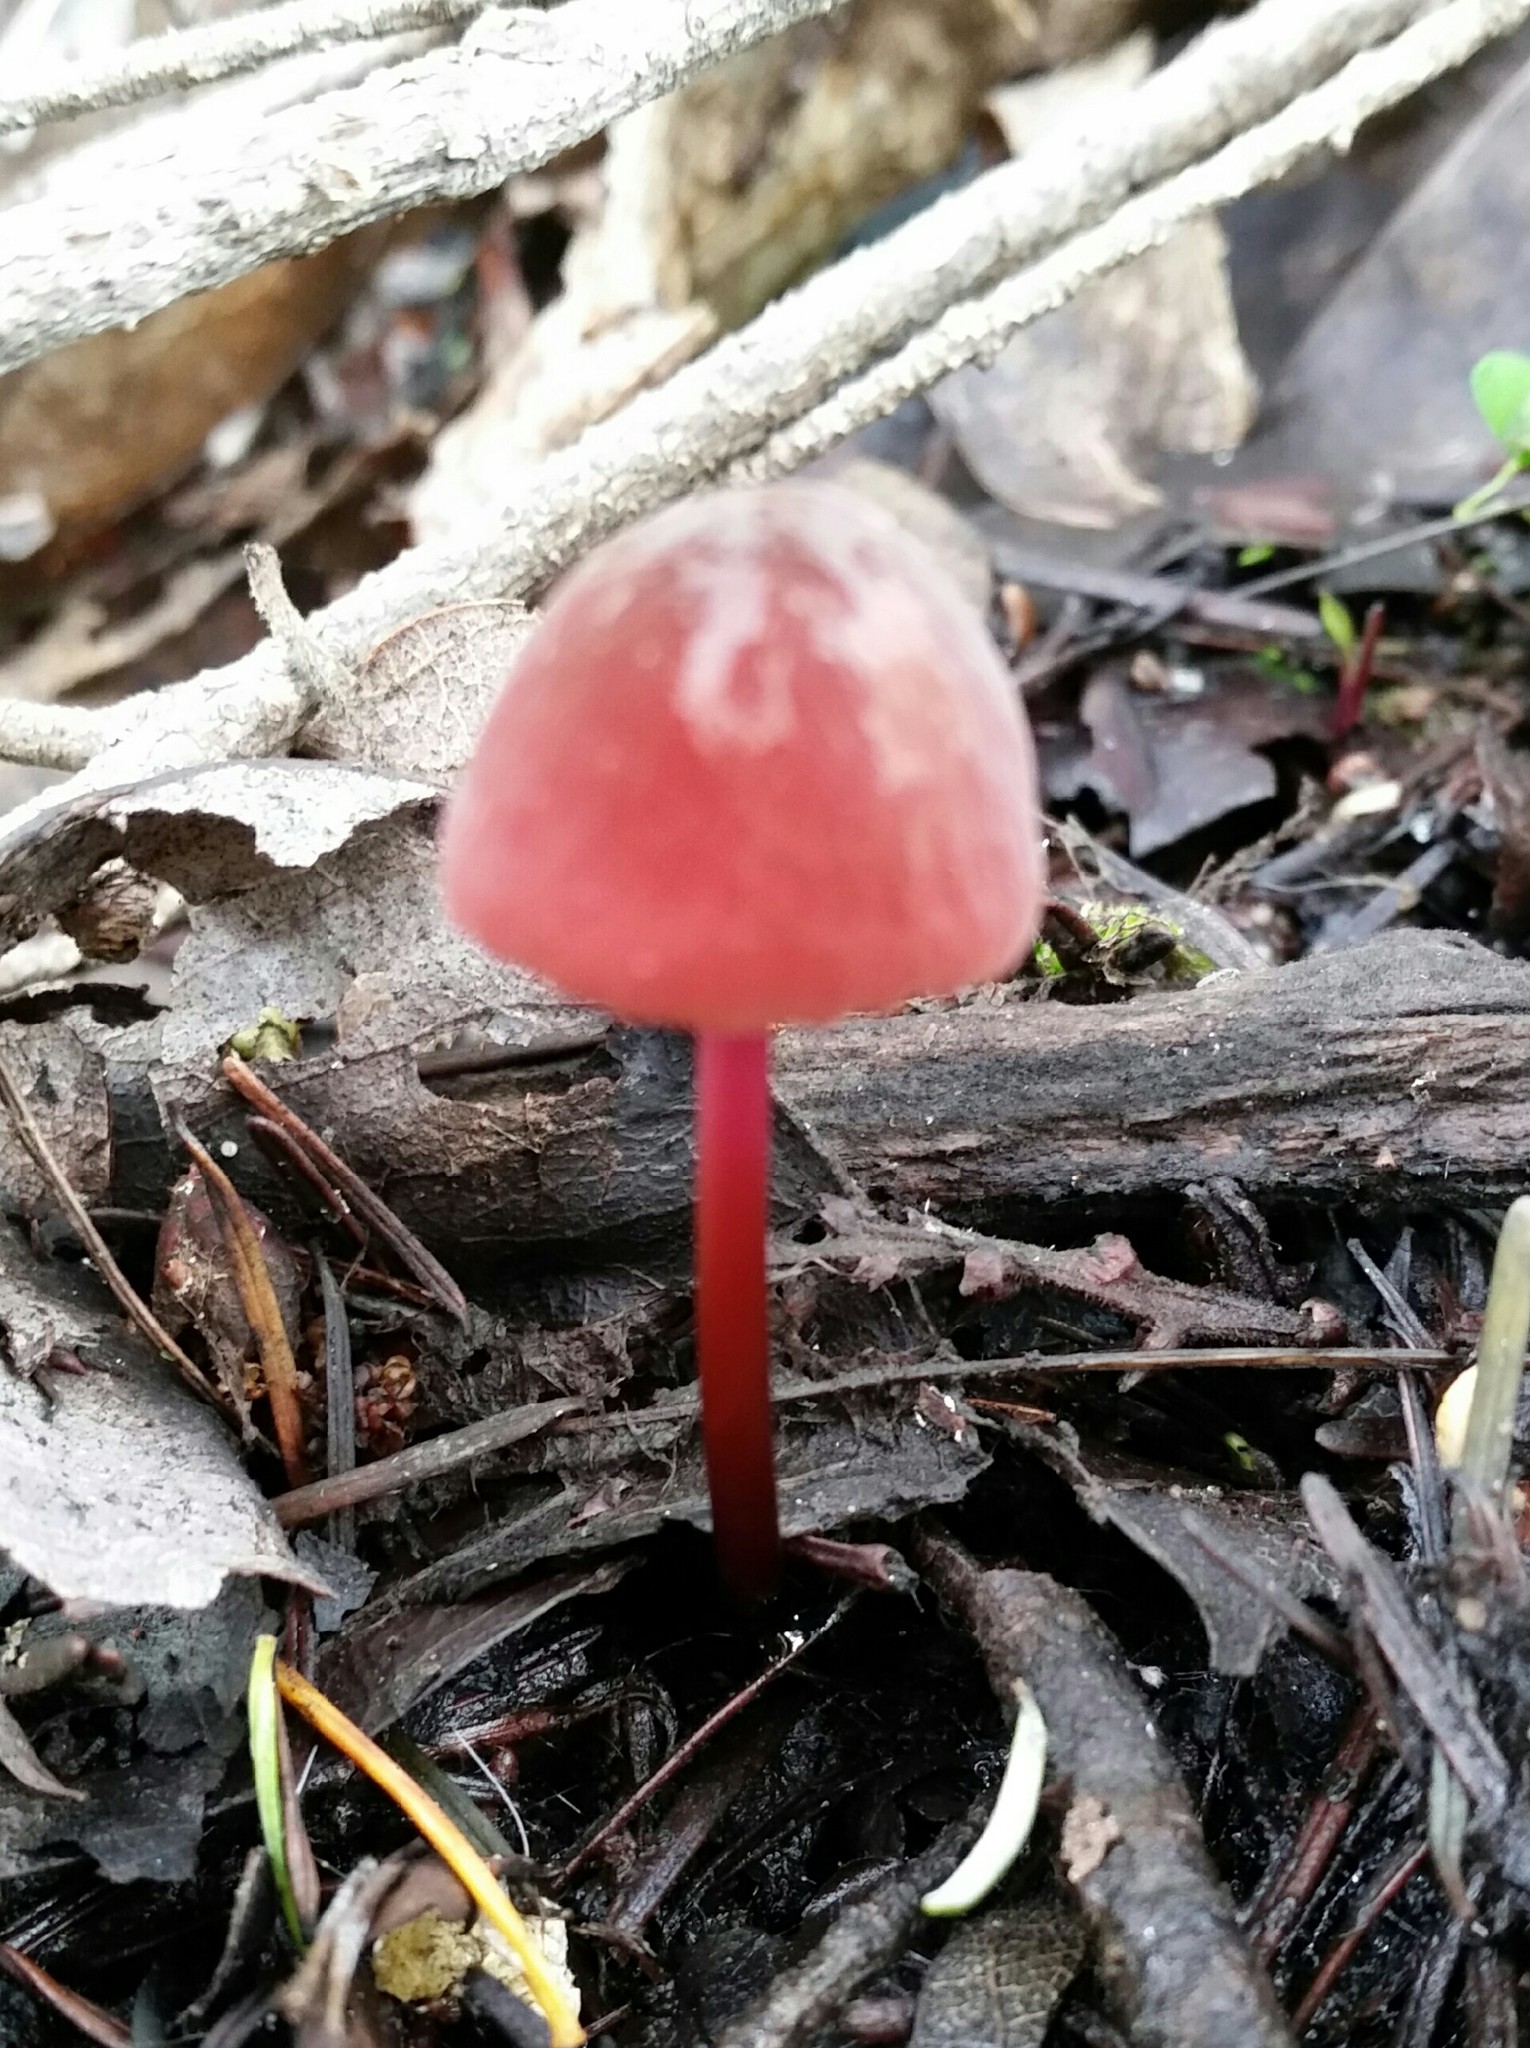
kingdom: Fungi
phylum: Basidiomycota
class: Agaricomycetes
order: Agaricales
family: Marasmiaceae
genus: Marasmius
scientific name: Marasmius plicatulus
